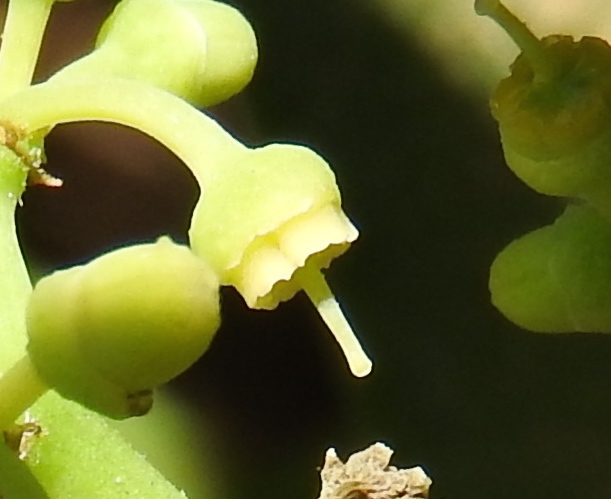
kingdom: Plantae
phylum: Tracheophyta
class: Magnoliopsida
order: Vitales
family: Vitaceae
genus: Cissus
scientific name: Cissus verticillata
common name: Princess vine
